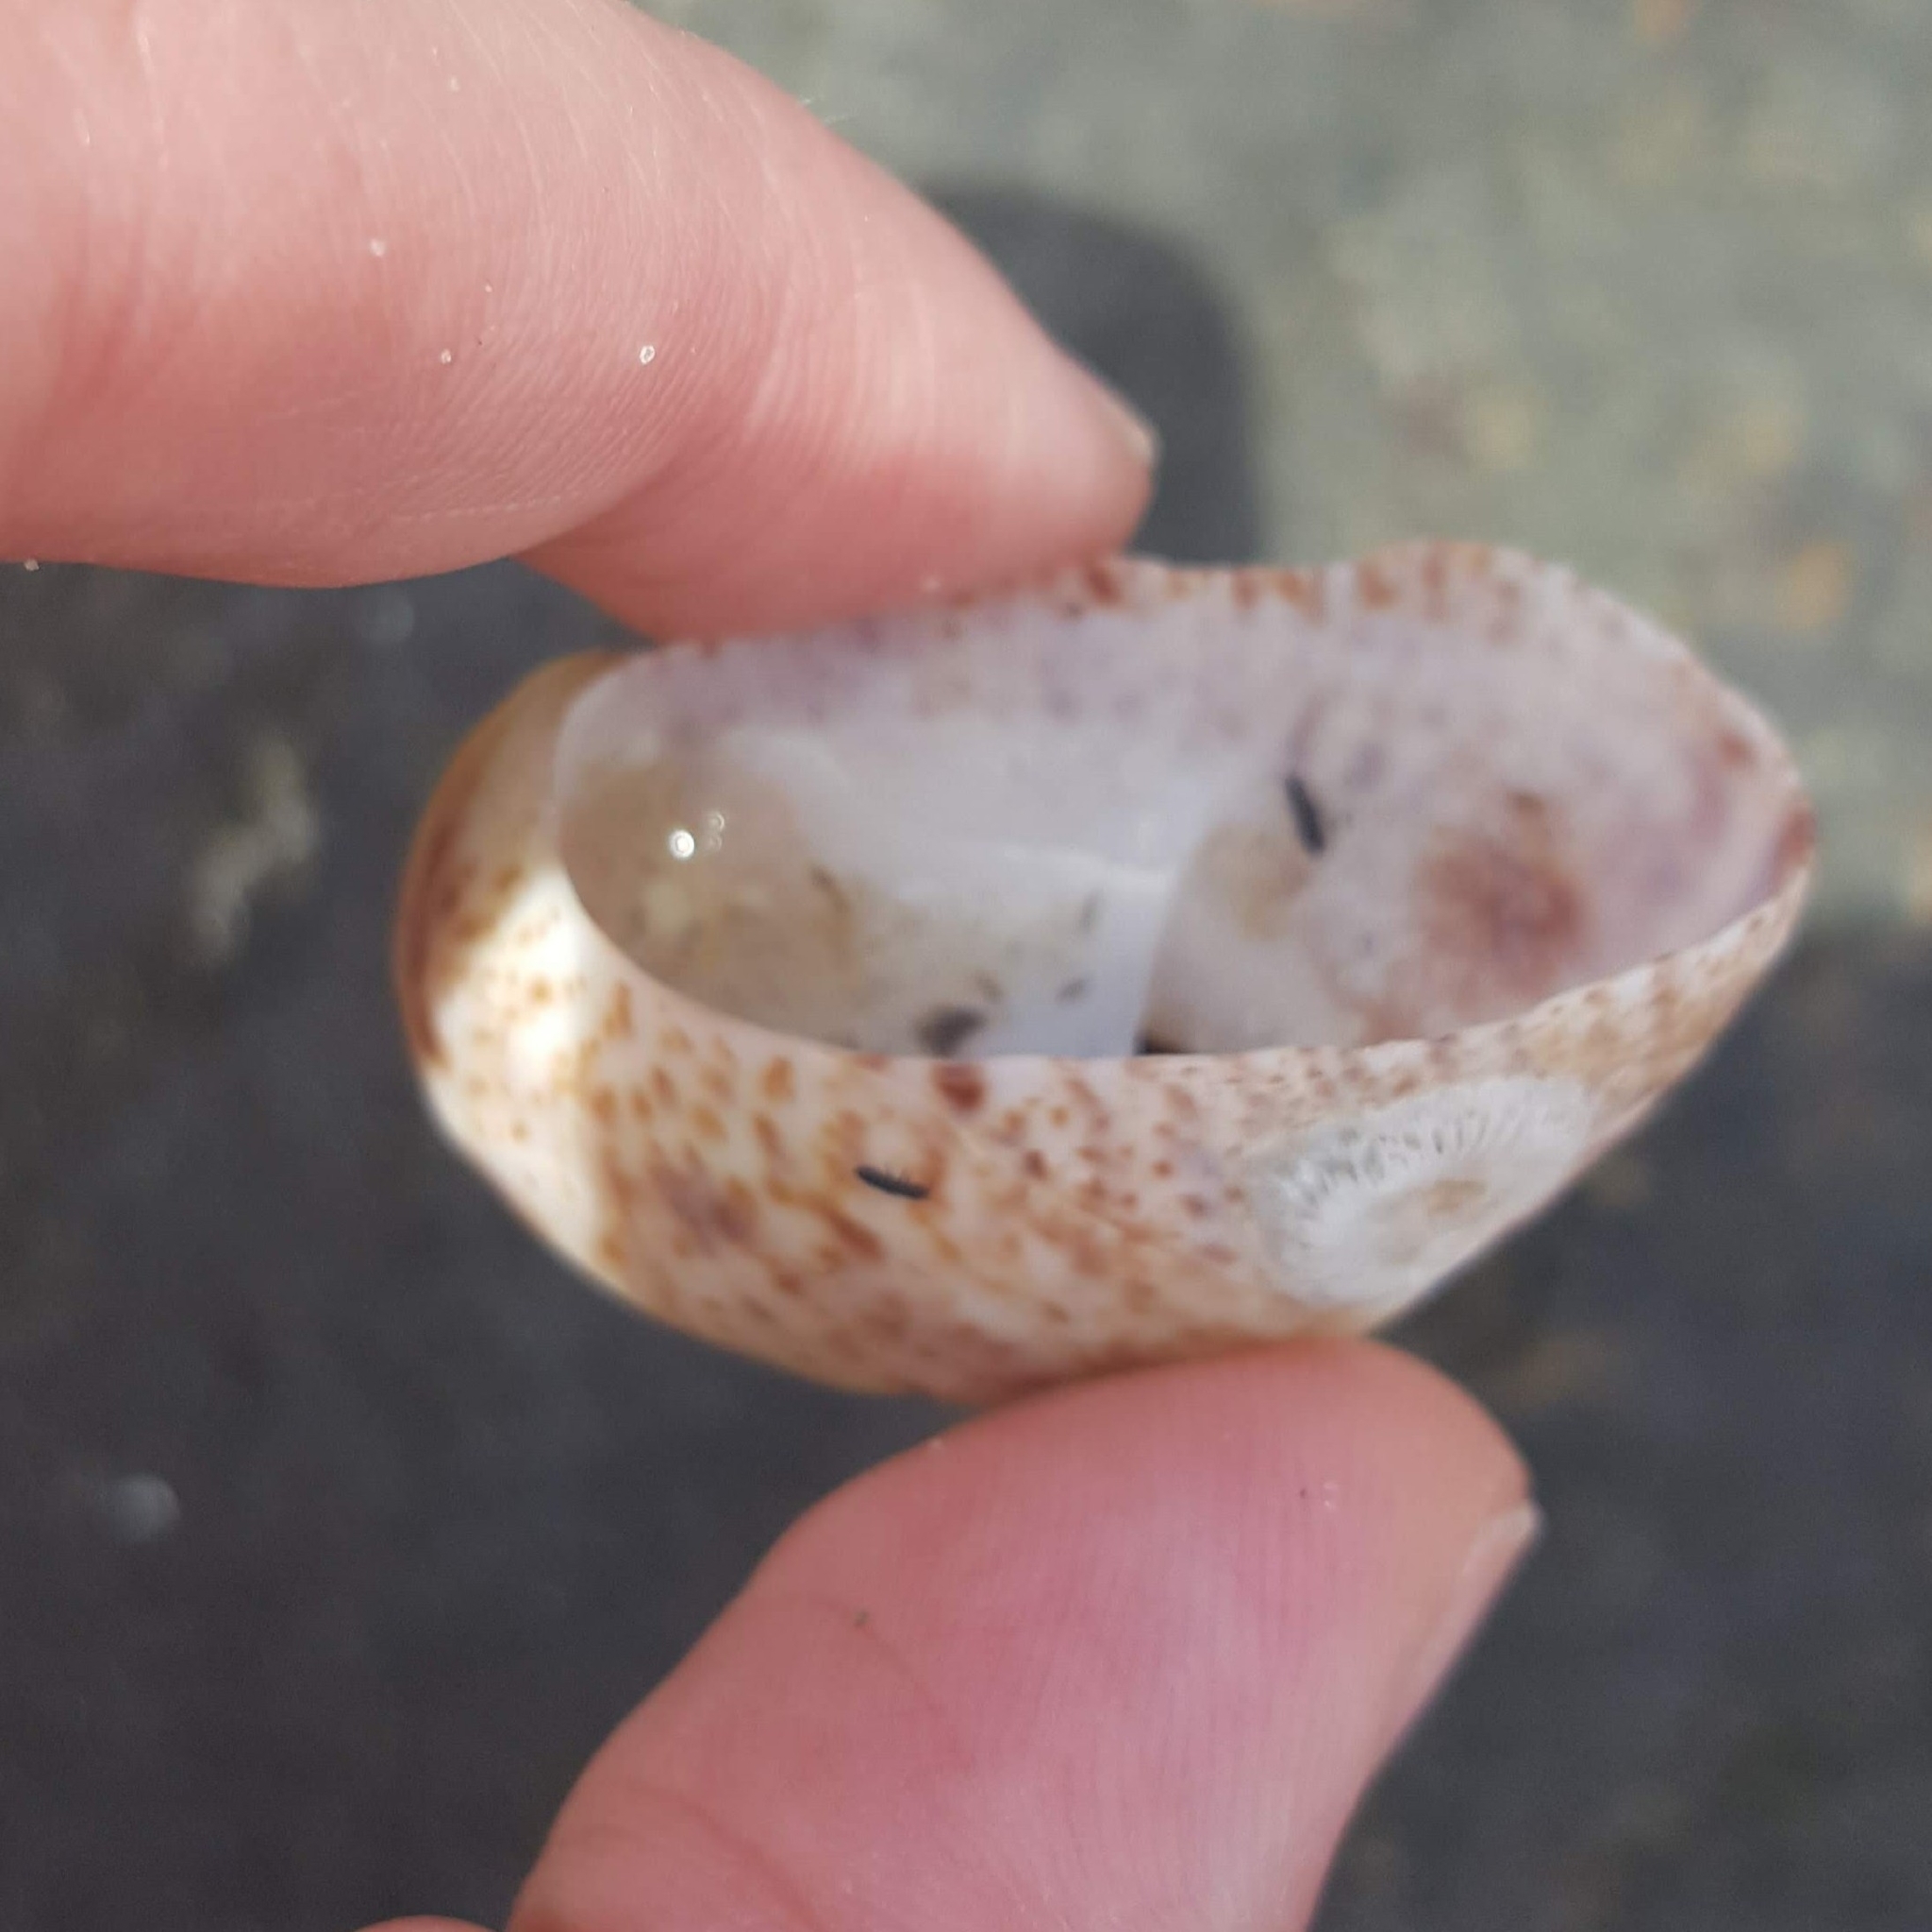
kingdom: Animalia
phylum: Mollusca
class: Gastropoda
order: Littorinimorpha
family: Calyptraeidae
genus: Crepidula
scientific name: Crepidula fornicata
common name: Slipper limpet
